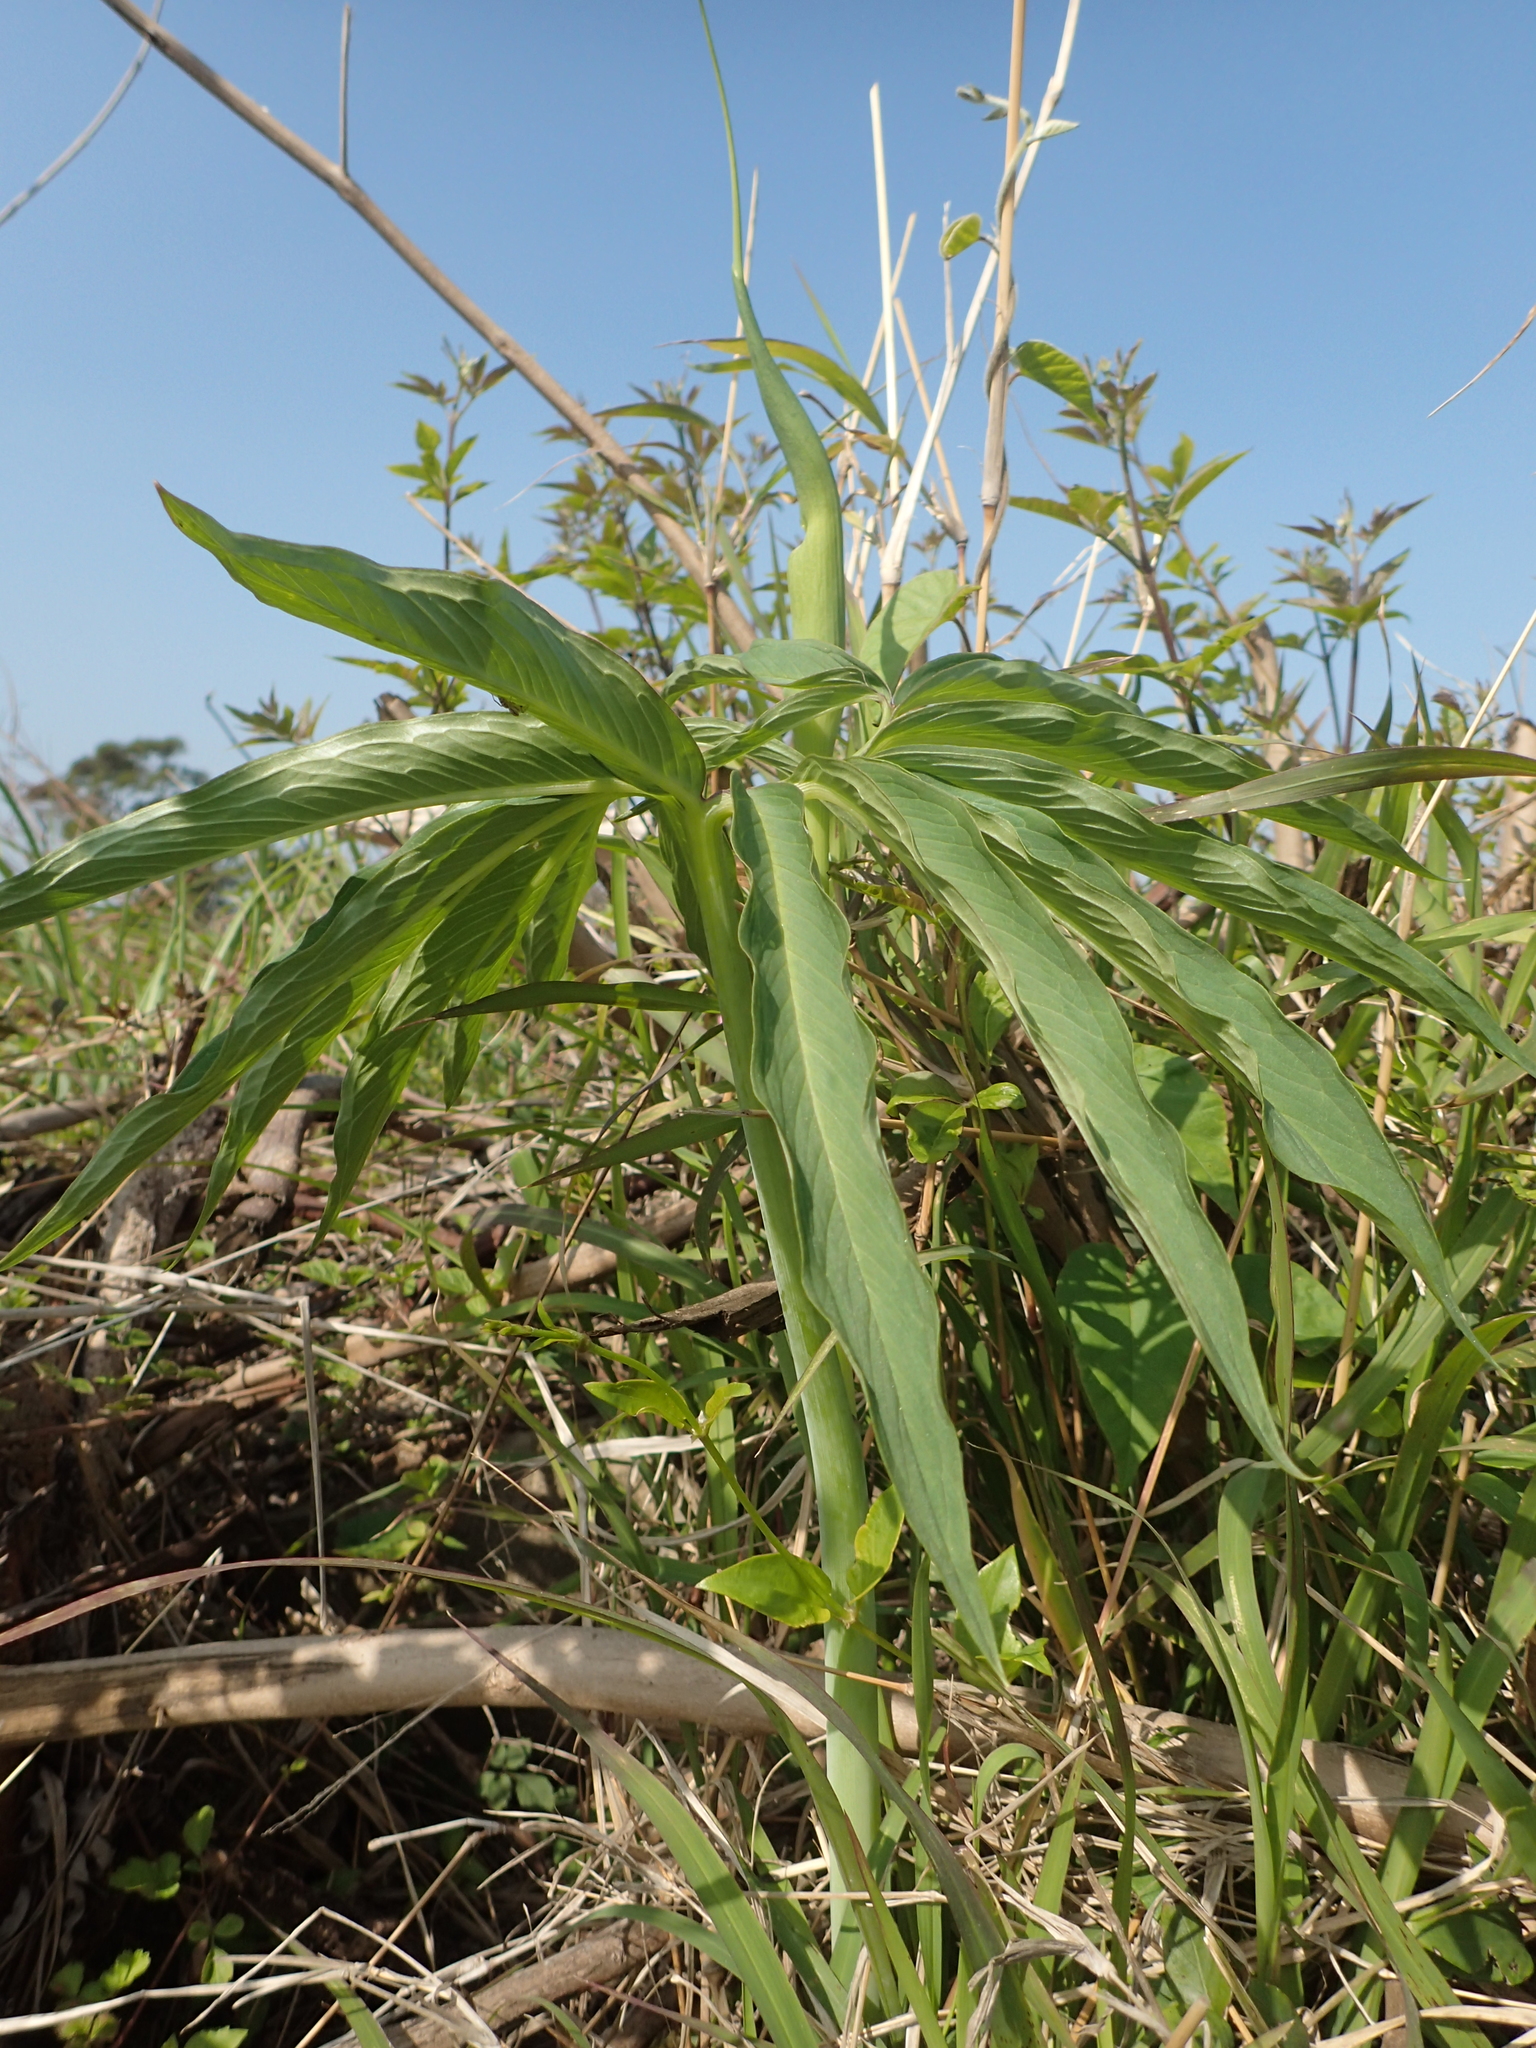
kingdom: Plantae
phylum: Tracheophyta
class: Liliopsida
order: Alismatales
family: Araceae
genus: Arisaema
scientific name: Arisaema heterophyllum
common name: Dancing crane cobra lily
